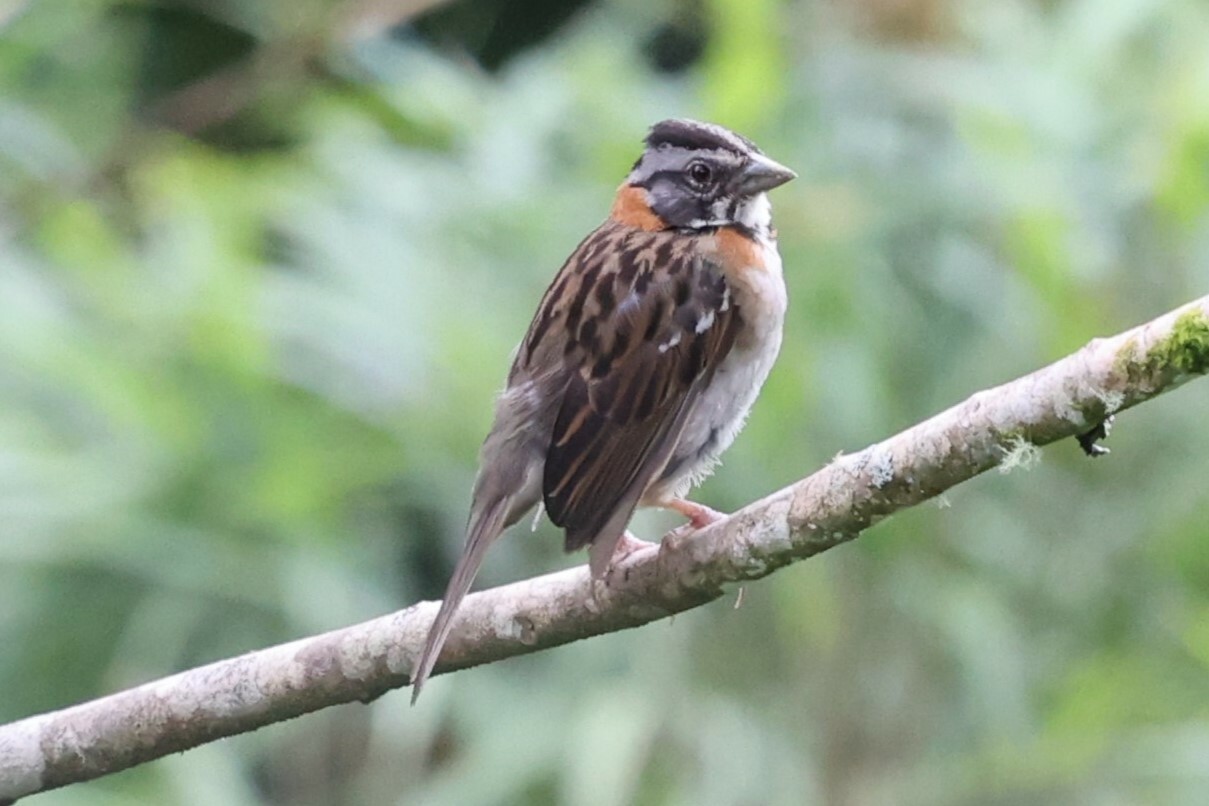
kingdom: Animalia
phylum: Chordata
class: Aves
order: Passeriformes
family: Passerellidae
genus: Zonotrichia
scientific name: Zonotrichia capensis
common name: Rufous-collared sparrow
